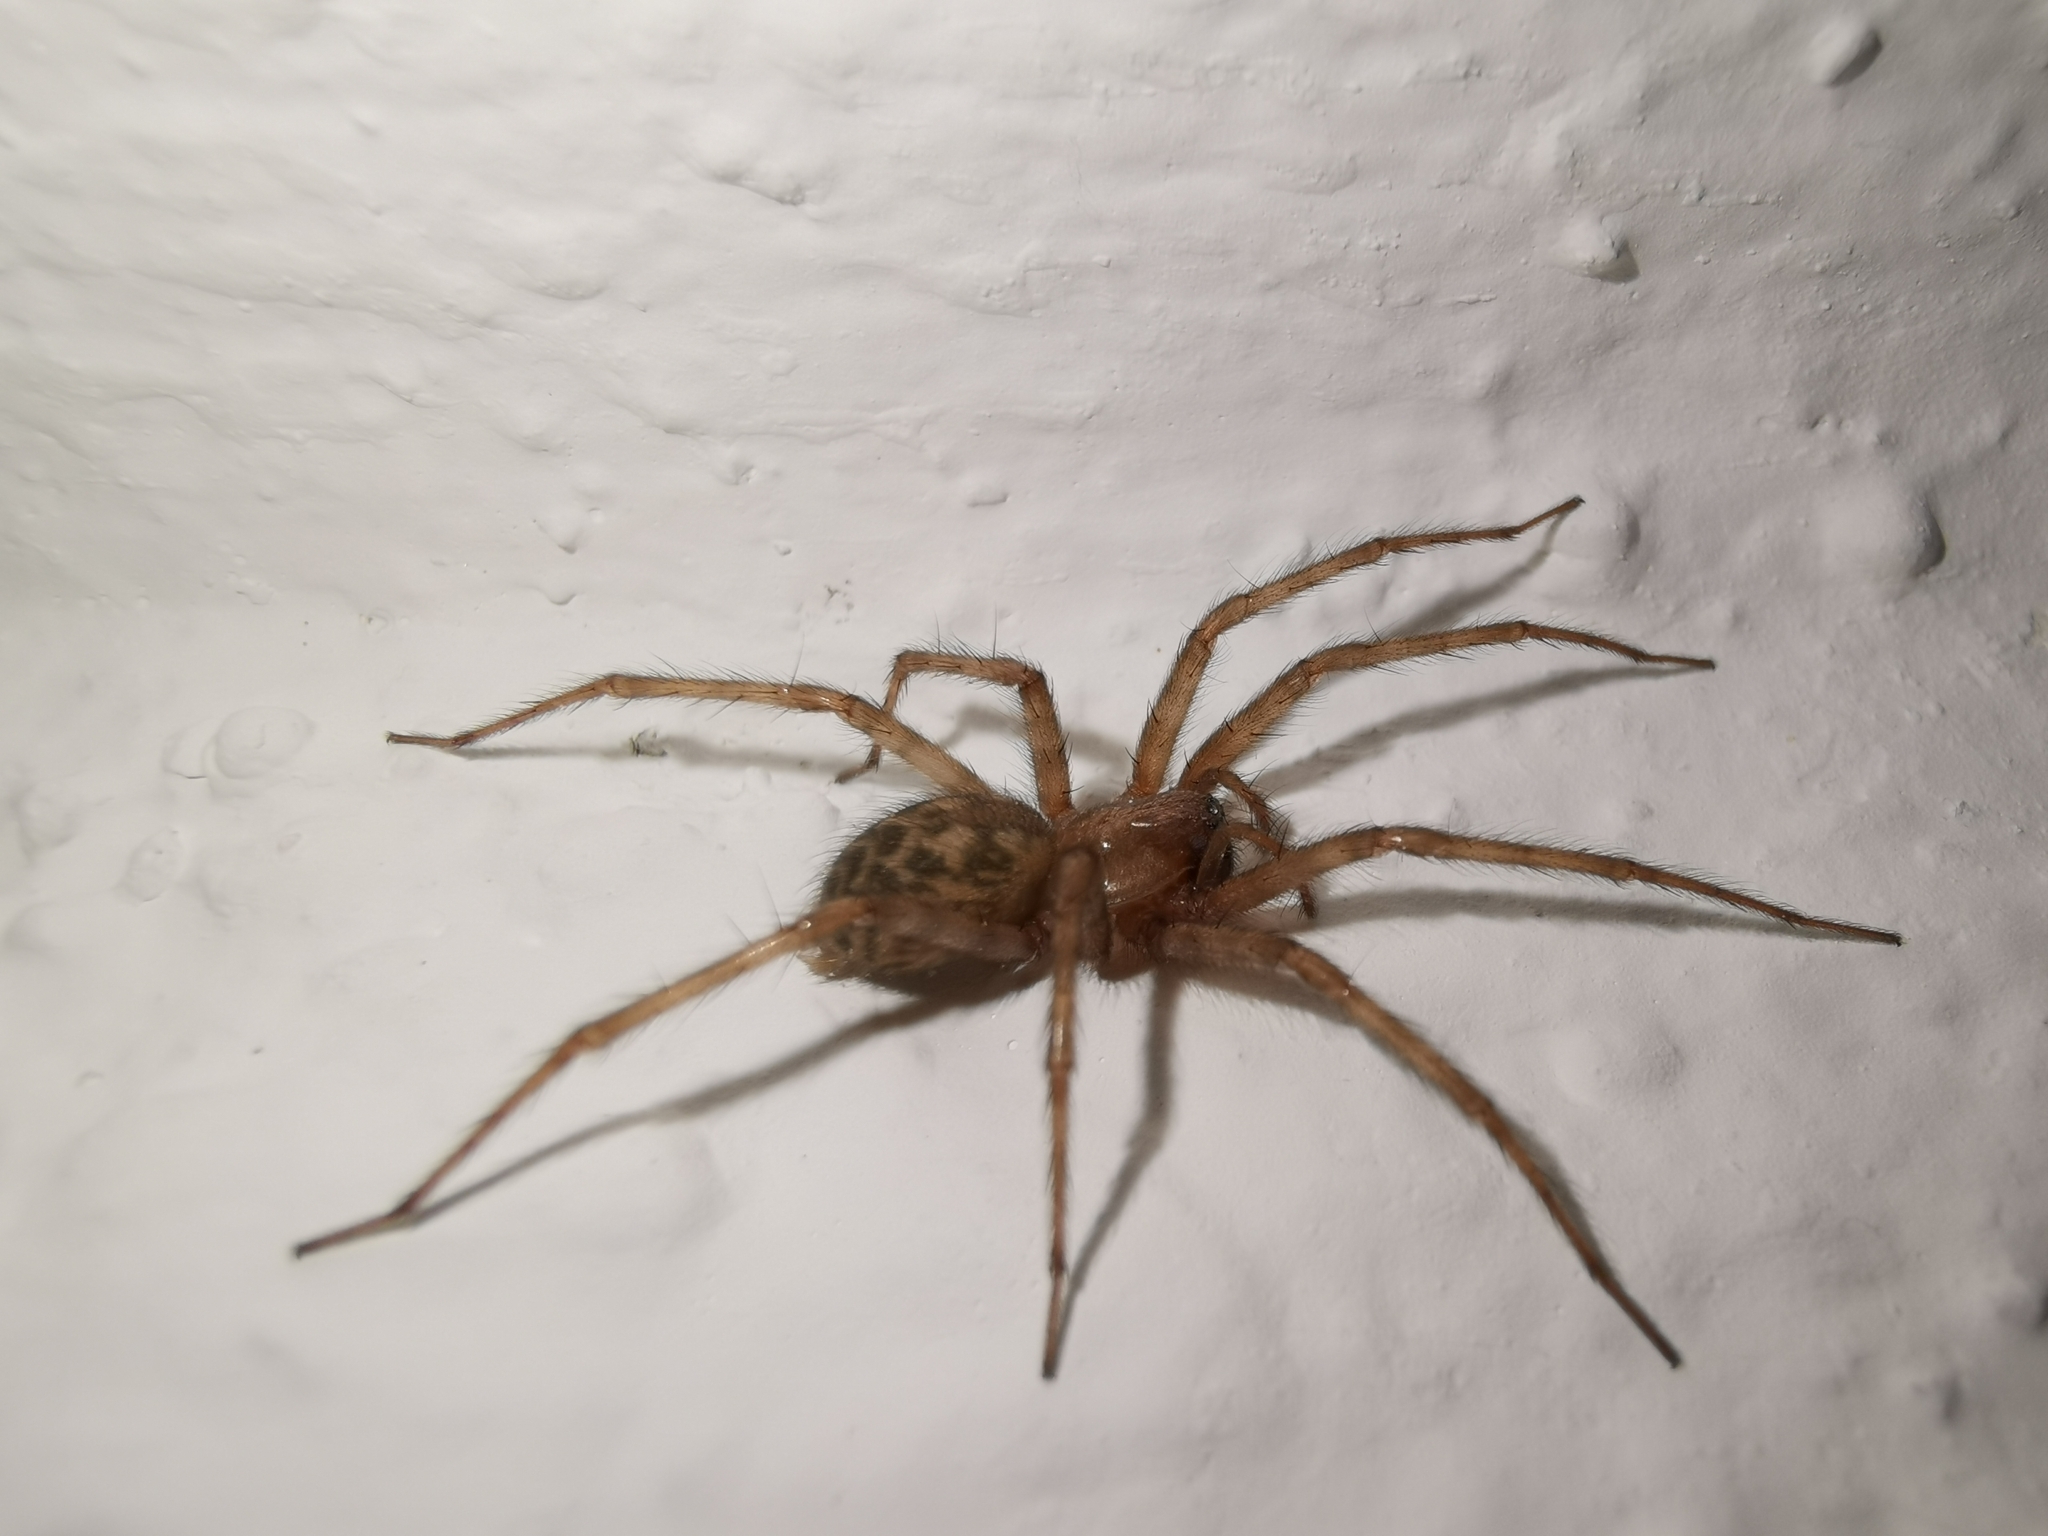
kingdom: Animalia
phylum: Arthropoda
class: Arachnida
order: Araneae
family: Agelenidae
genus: Tegenaria
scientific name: Tegenaria domestica
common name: Barn funnel weaver
